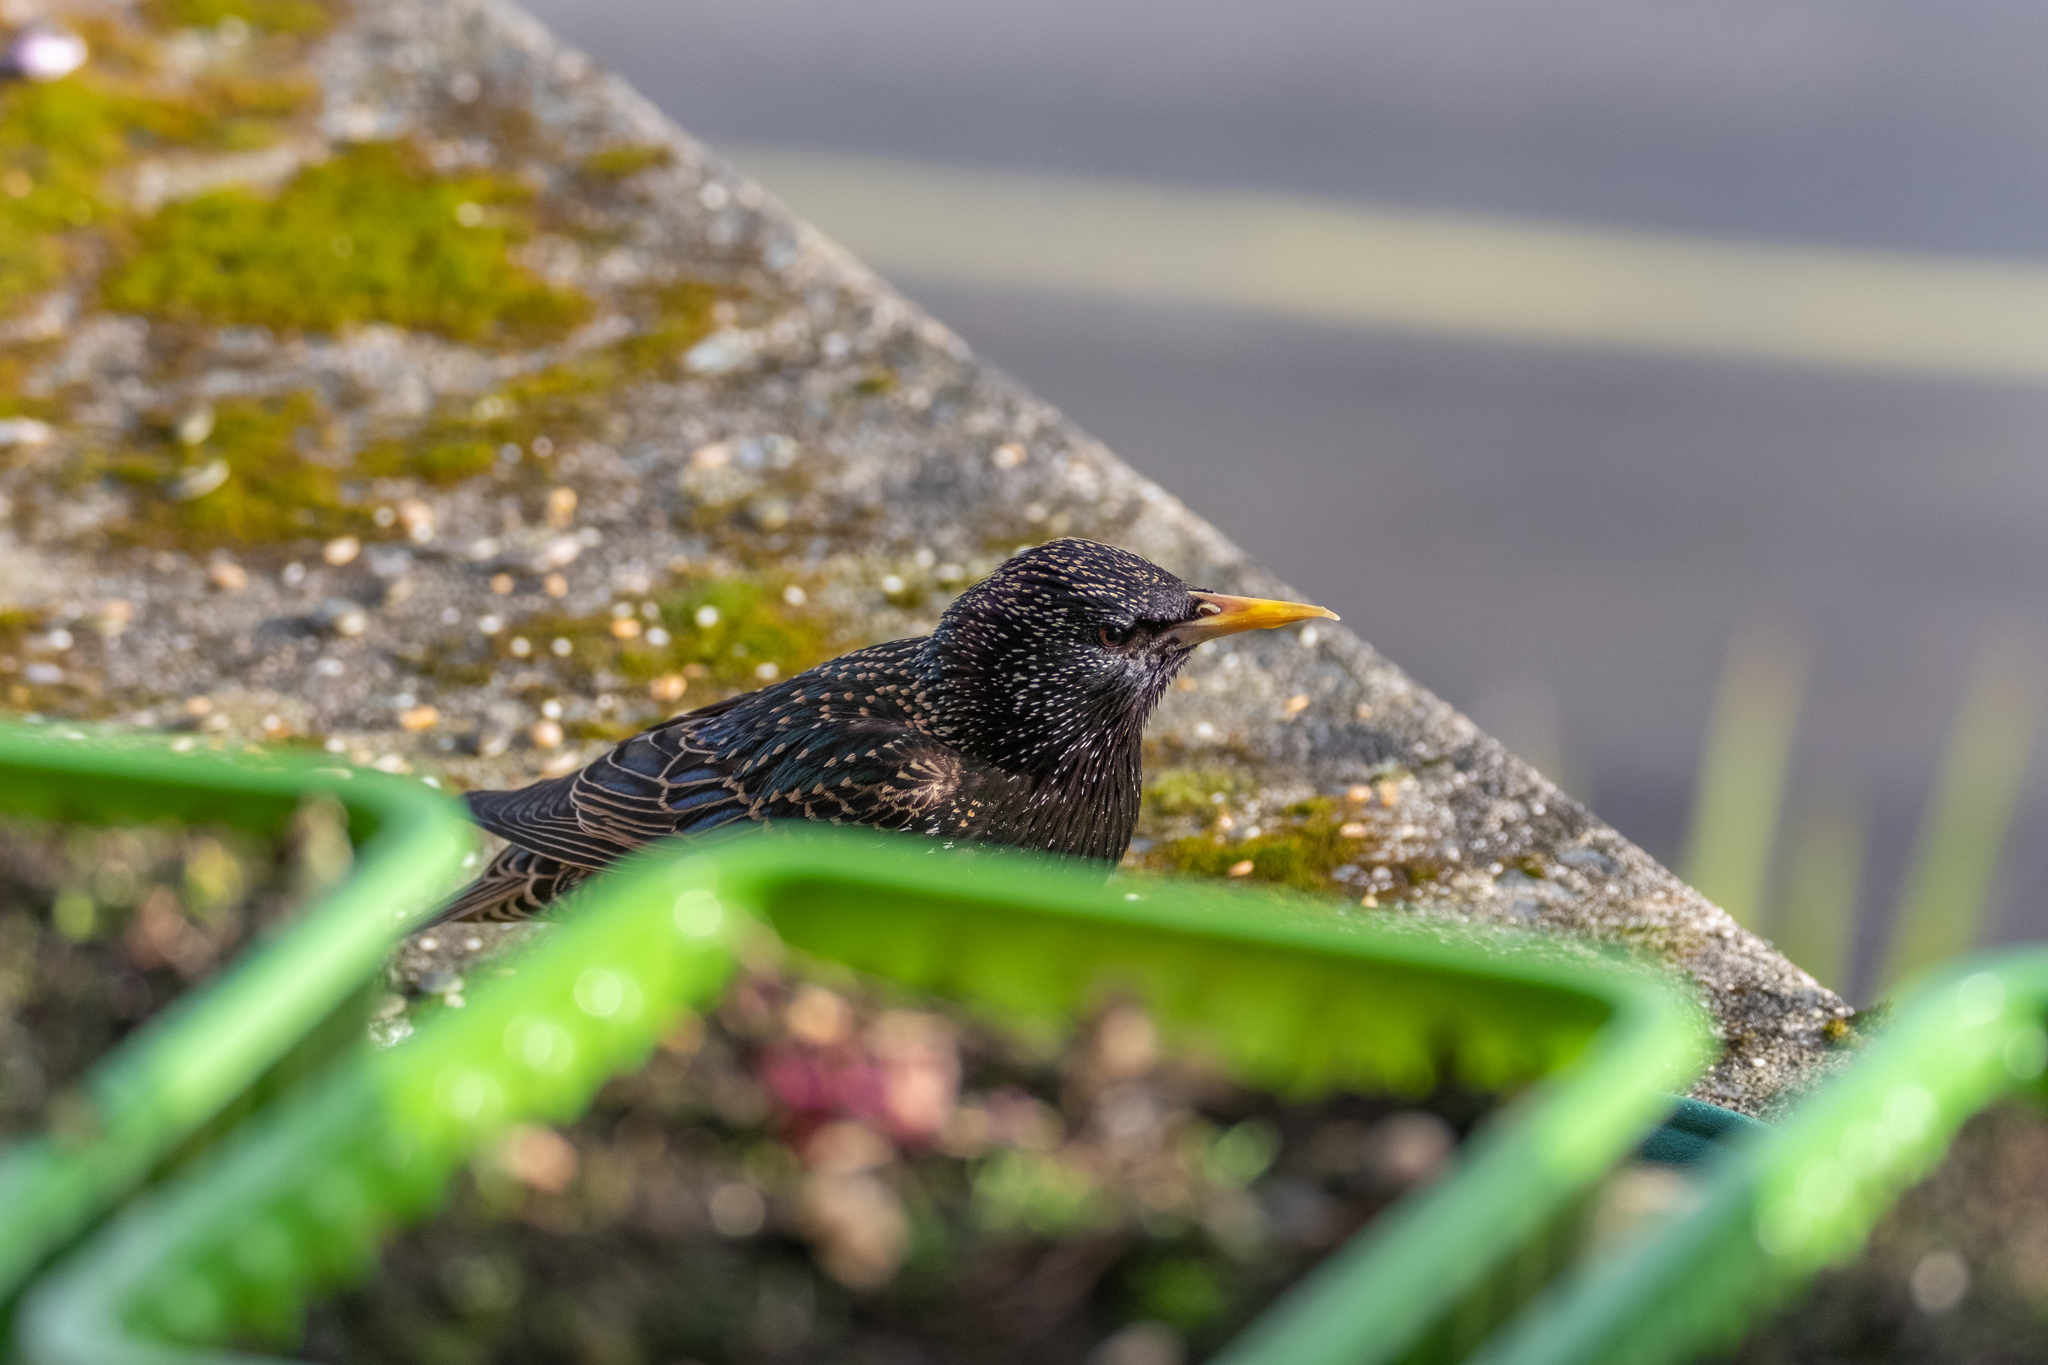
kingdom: Animalia
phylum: Chordata
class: Aves
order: Passeriformes
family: Sturnidae
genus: Sturnus
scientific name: Sturnus vulgaris
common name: Common starling
